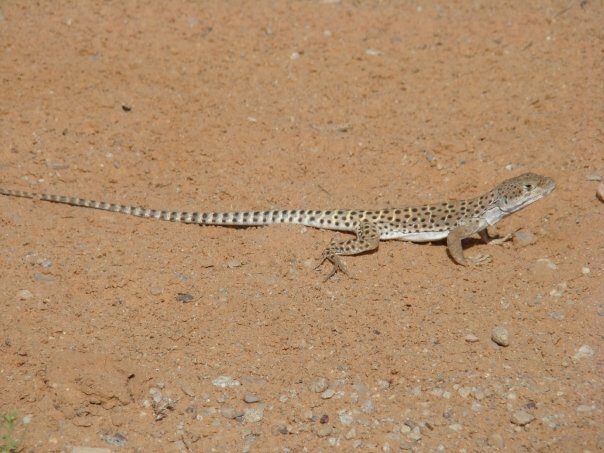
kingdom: Animalia
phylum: Chordata
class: Squamata
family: Crotaphytidae
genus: Gambelia
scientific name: Gambelia wislizenii
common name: Longnose leopard lizard
